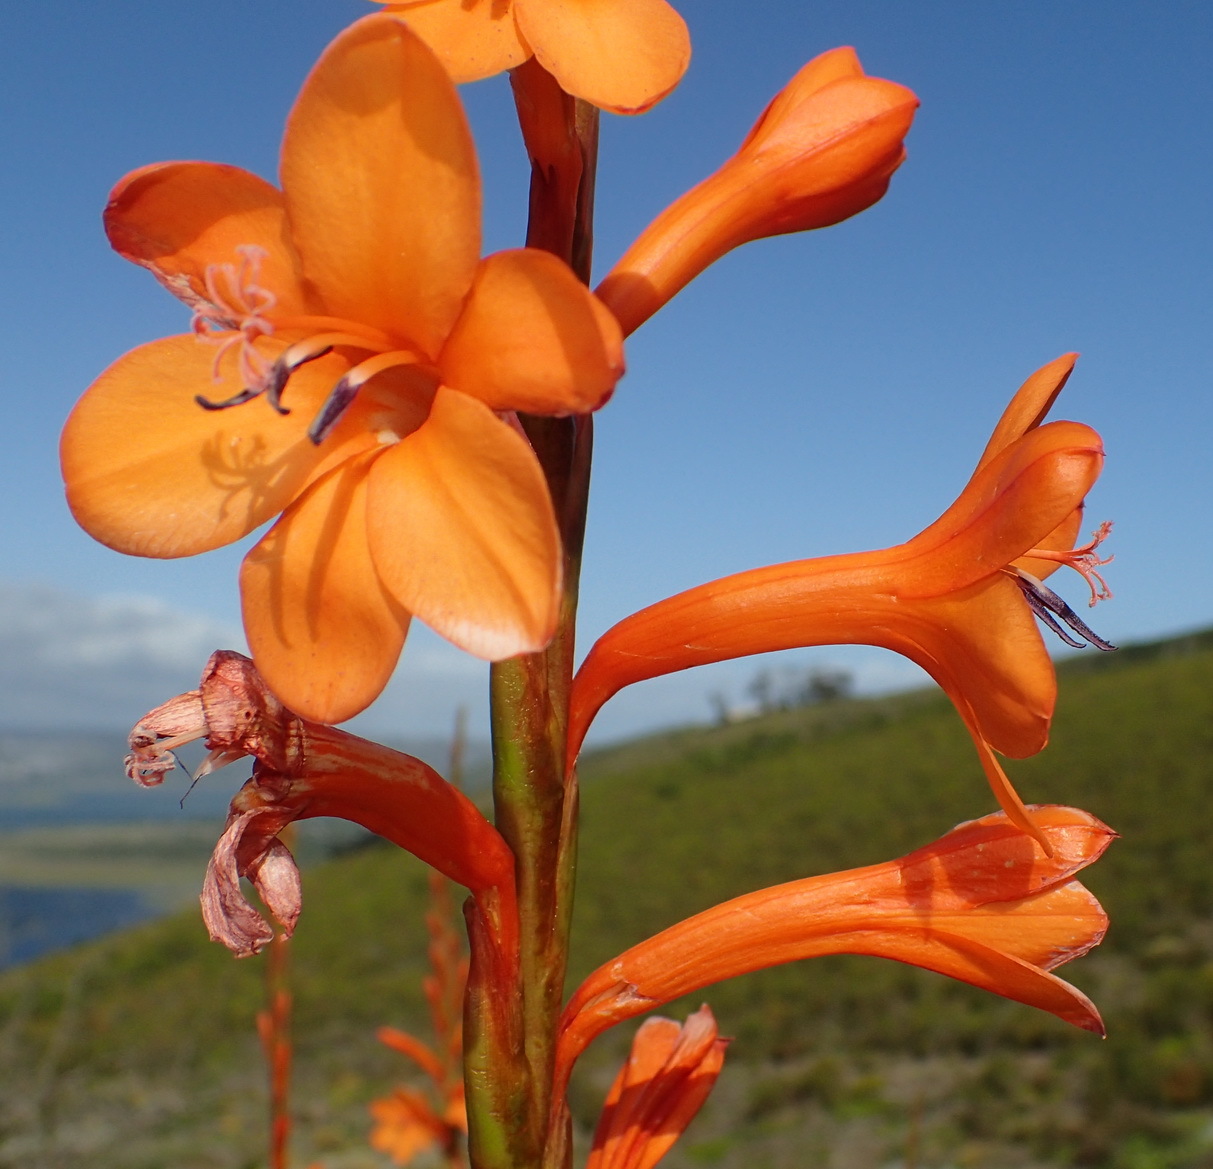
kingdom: Plantae
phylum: Tracheophyta
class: Liliopsida
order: Asparagales
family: Iridaceae
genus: Watsonia
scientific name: Watsonia pillansii
